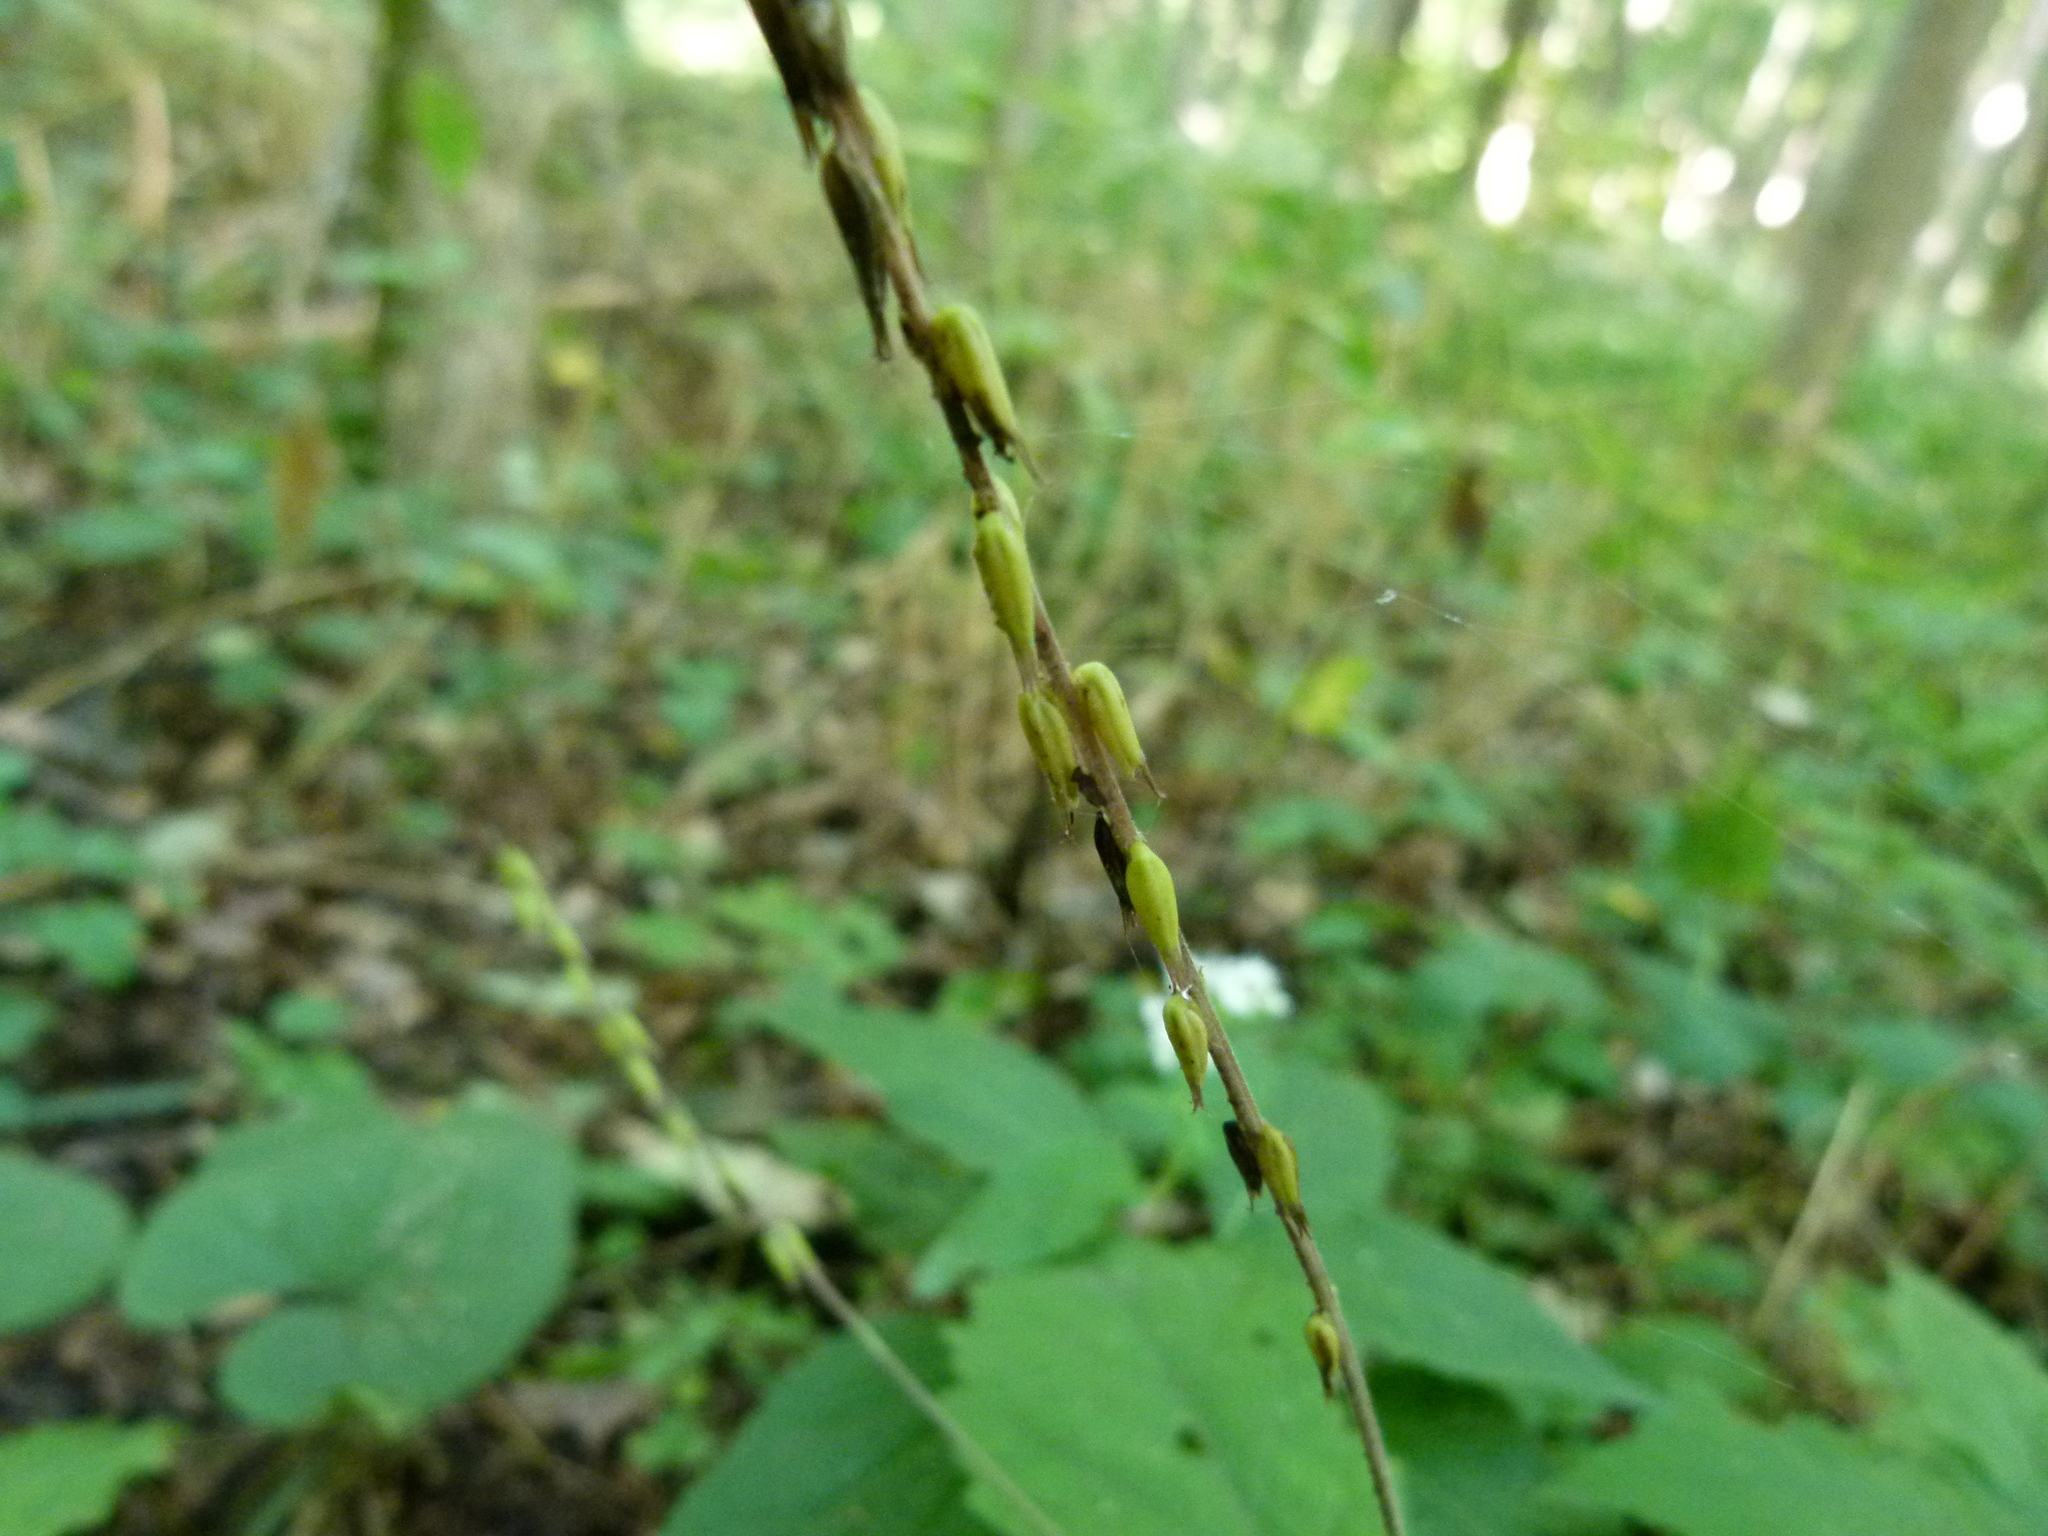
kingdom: Plantae
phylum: Tracheophyta
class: Magnoliopsida
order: Lamiales
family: Phrymaceae
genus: Phryma
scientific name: Phryma leptostachya
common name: American lopseed
